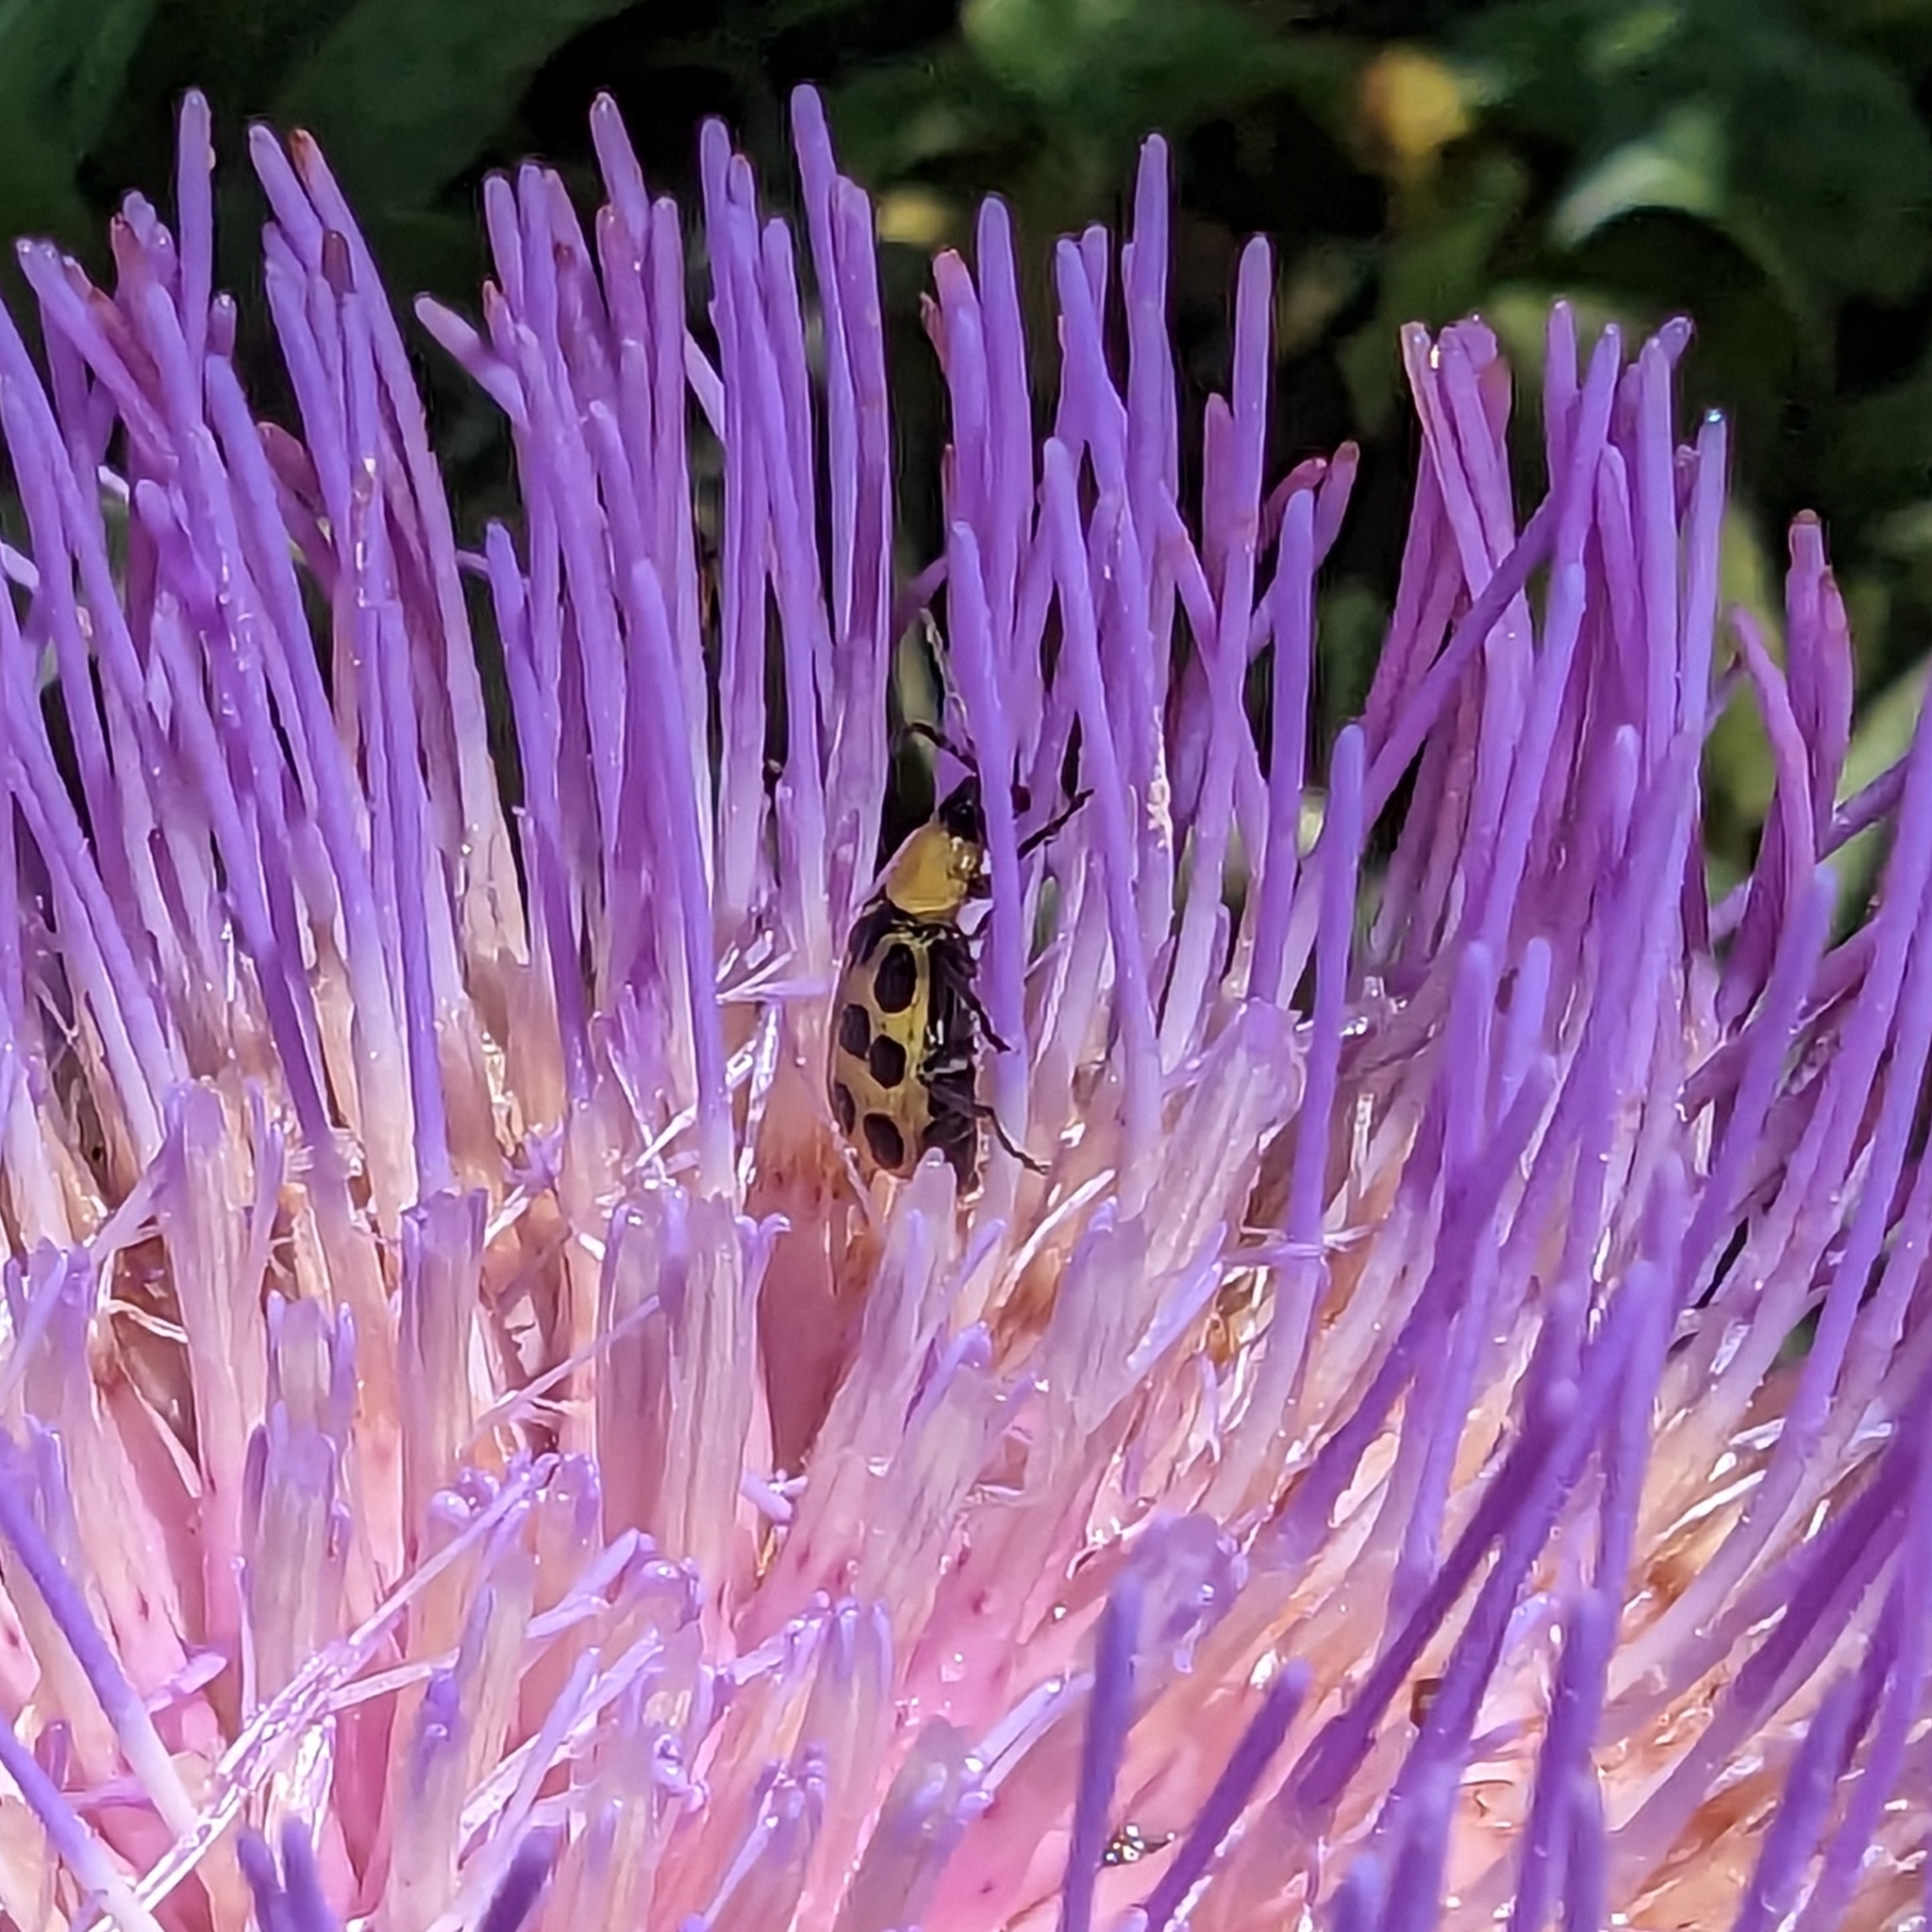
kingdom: Animalia
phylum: Arthropoda
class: Insecta
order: Coleoptera
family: Chrysomelidae
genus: Diabrotica
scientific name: Diabrotica undecimpunctata
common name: Spotted cucumber beetle
